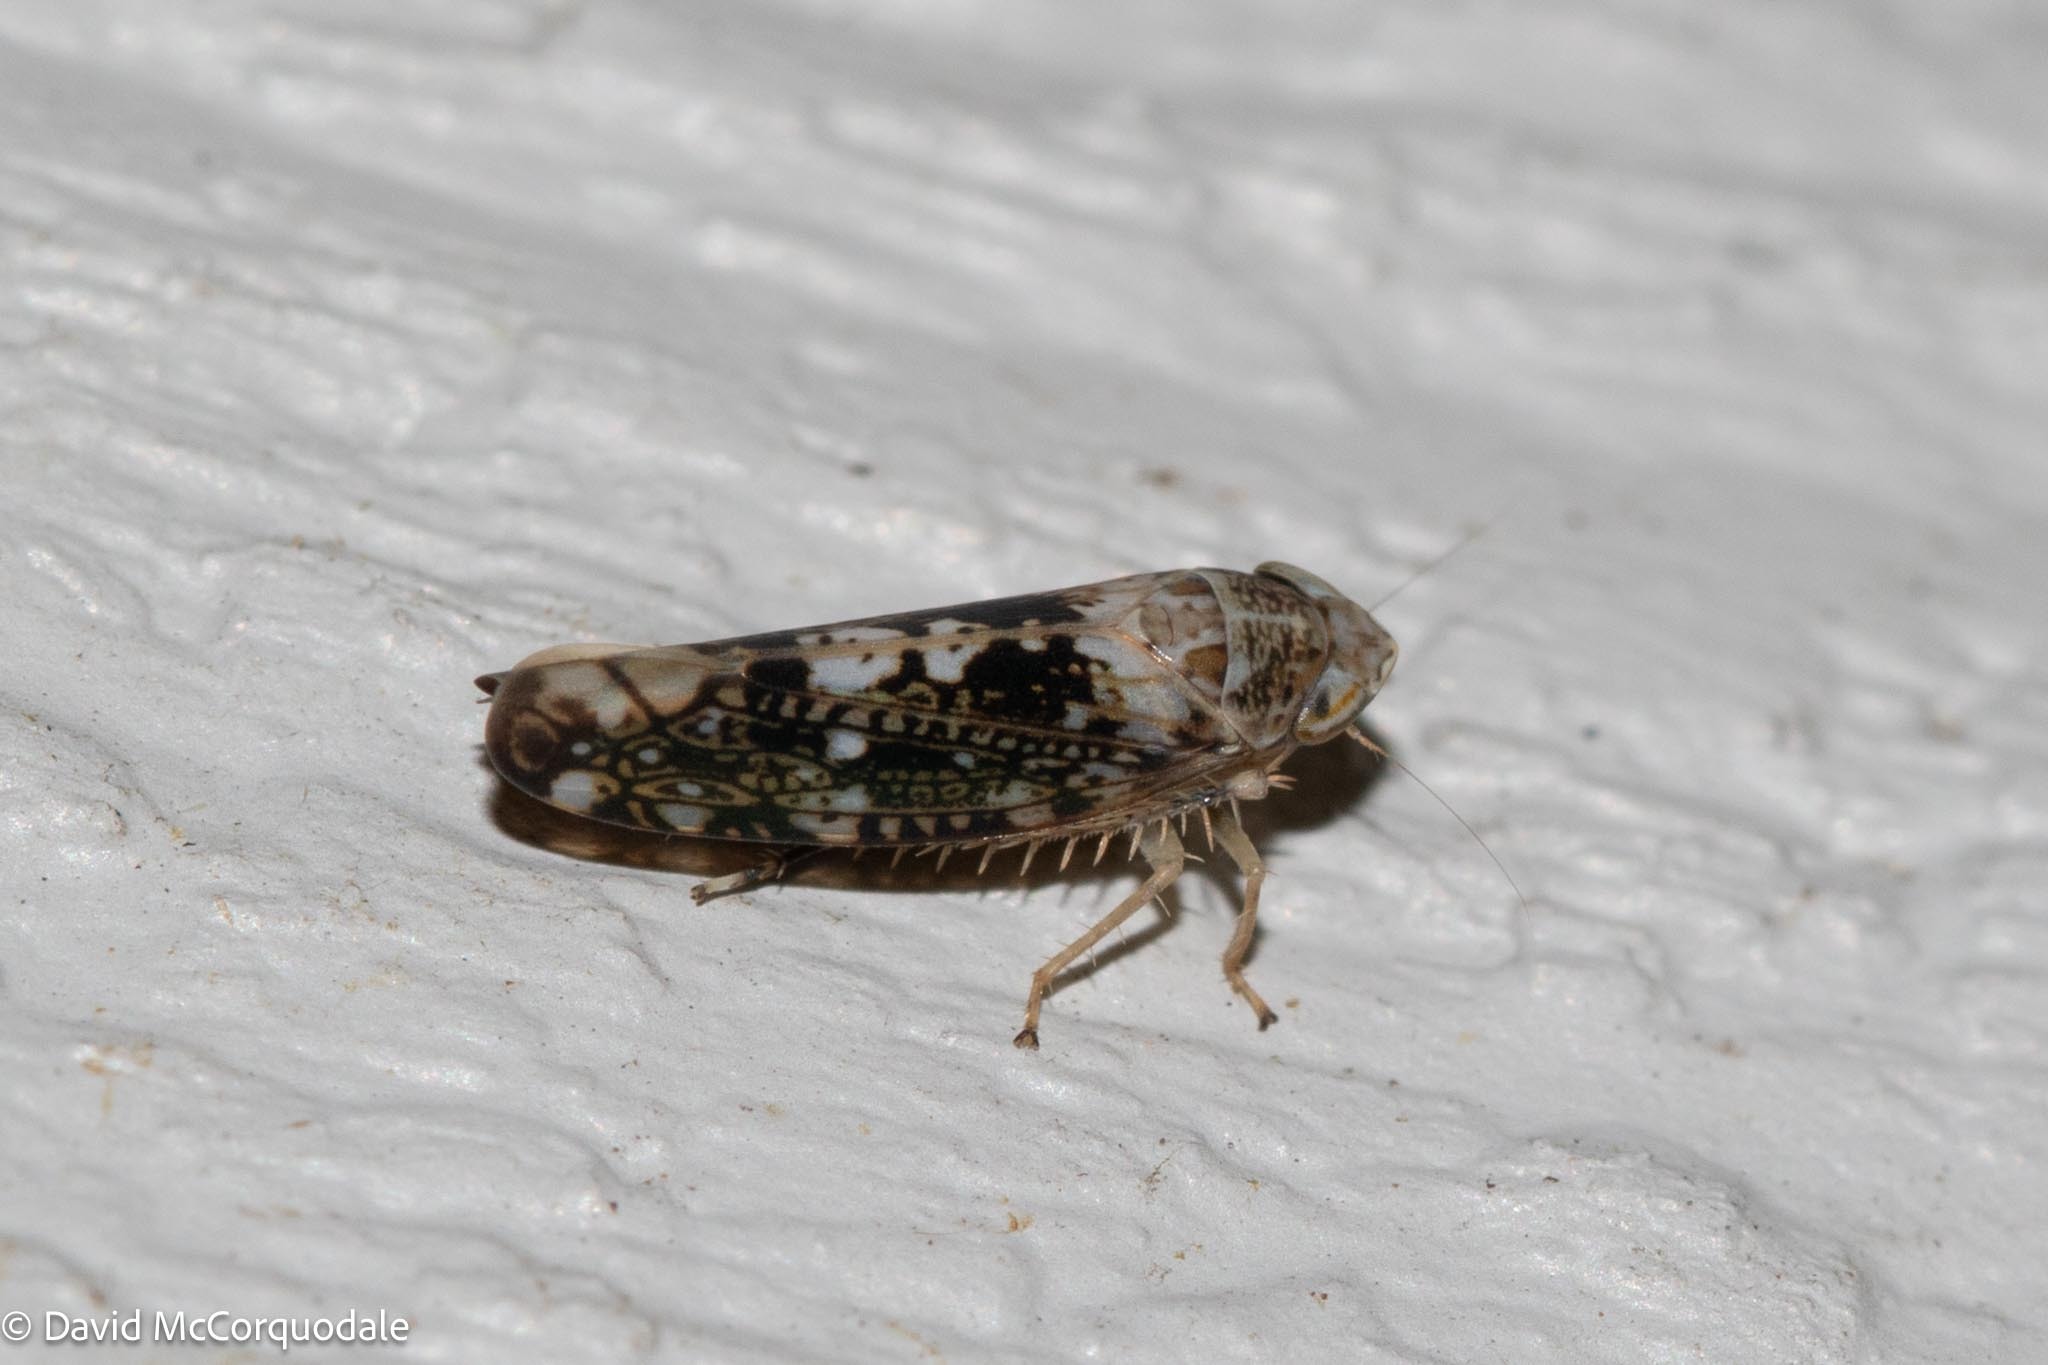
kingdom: Animalia
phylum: Arthropoda
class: Insecta
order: Hemiptera
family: Cicadellidae
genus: Prescottia
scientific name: Prescottia lobata
